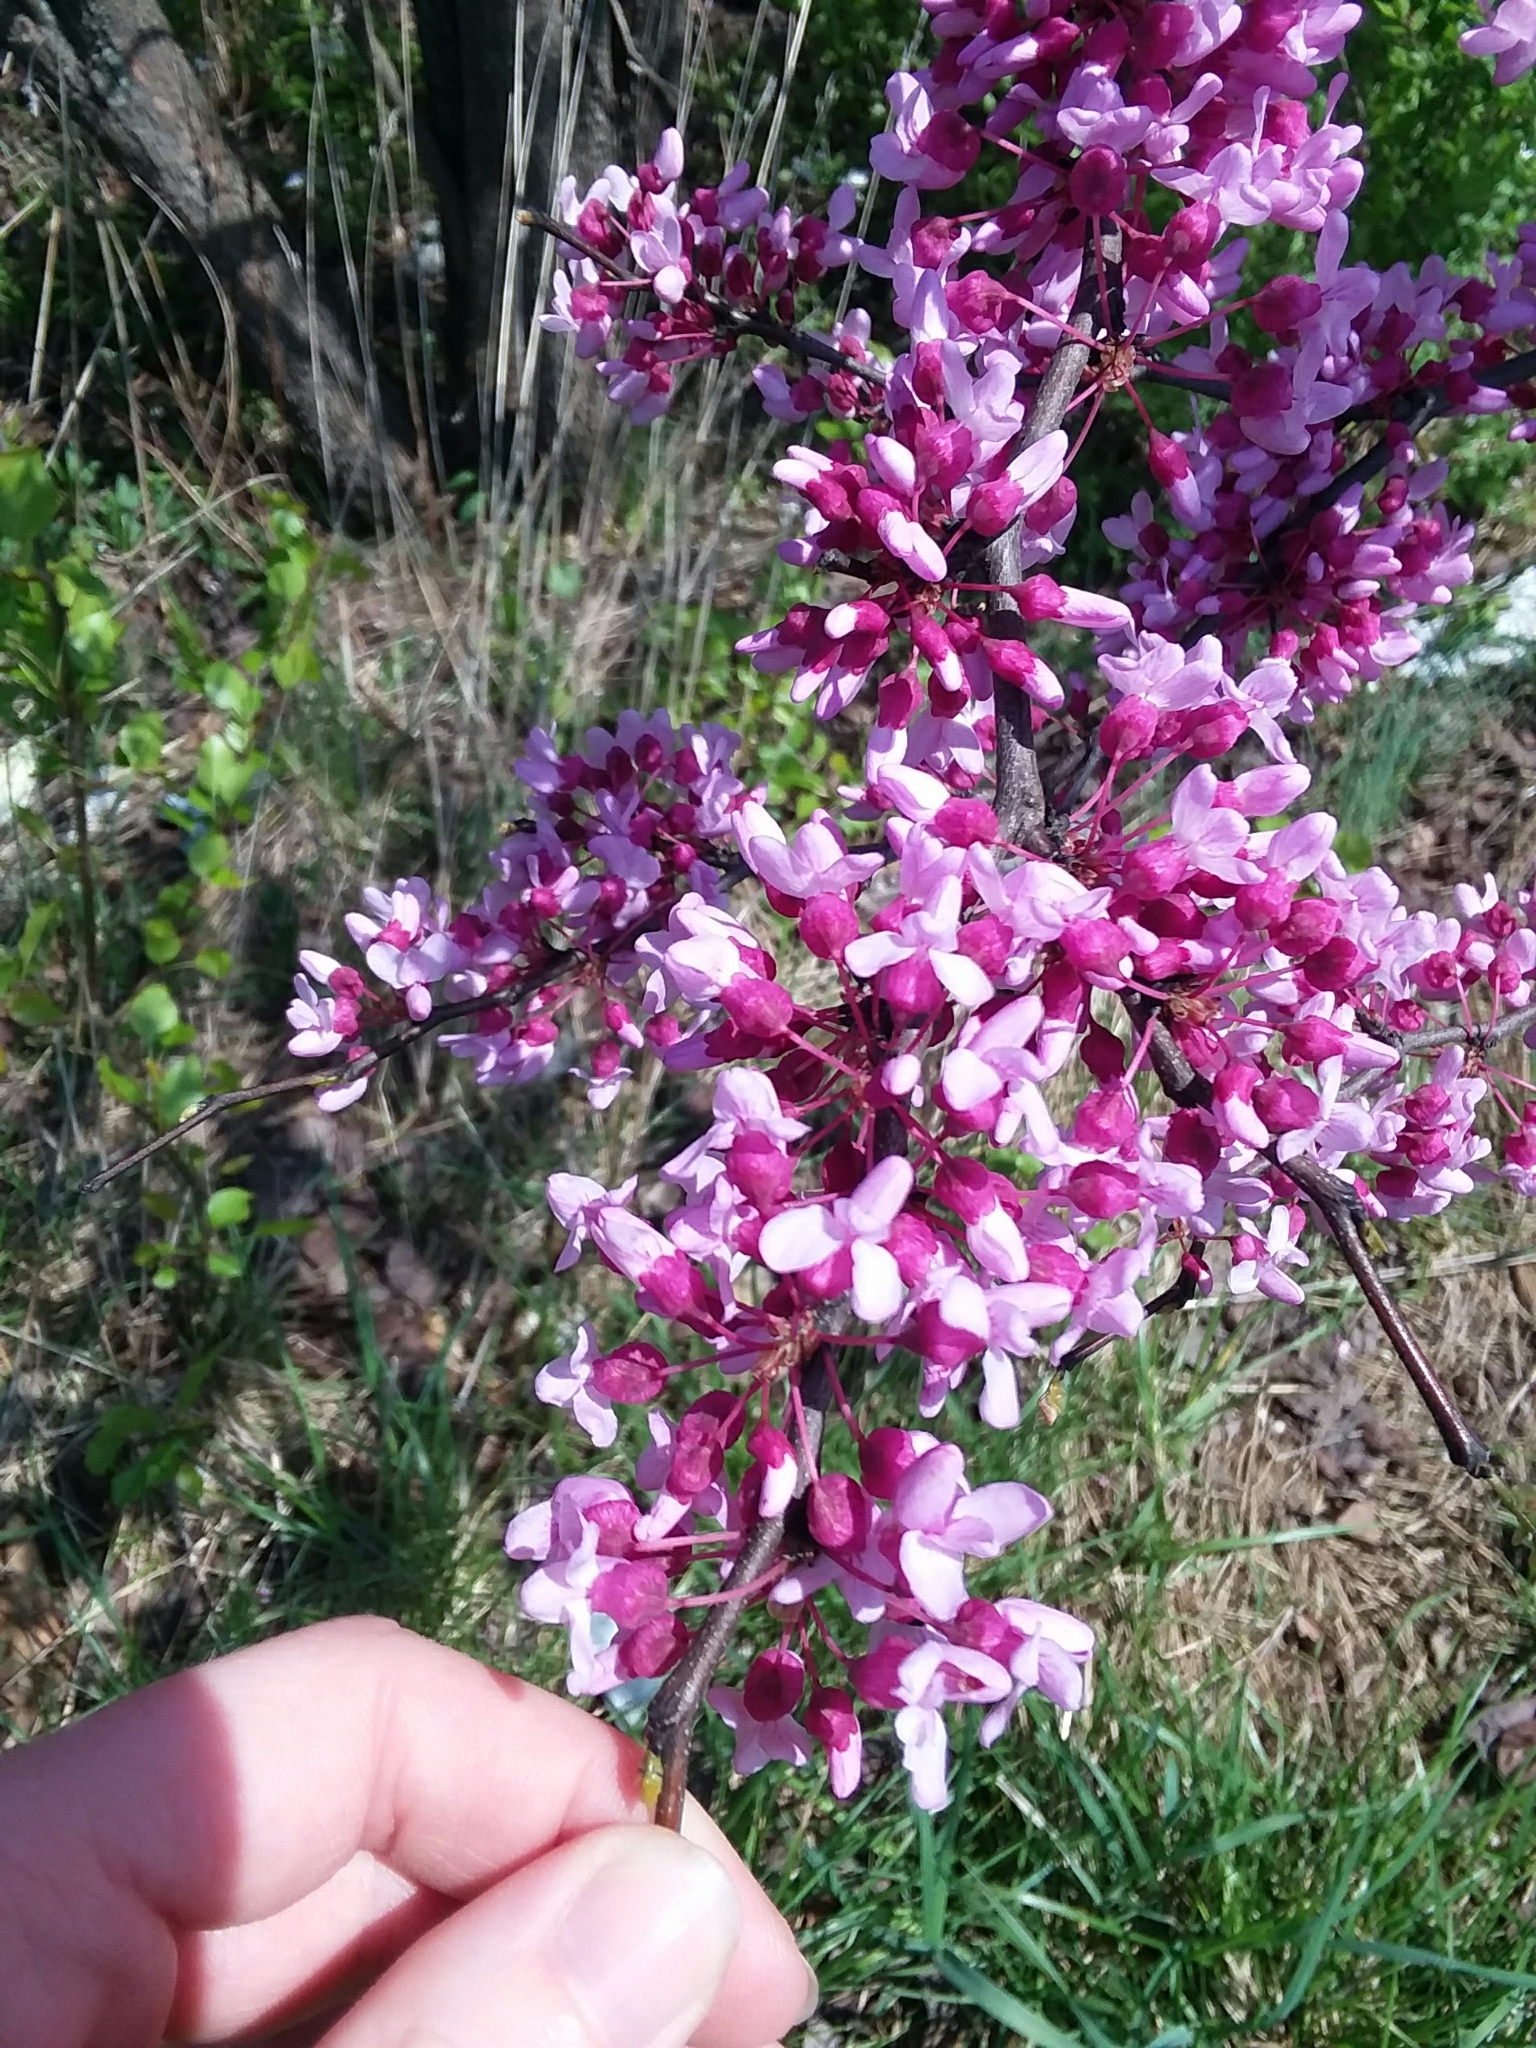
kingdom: Plantae
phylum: Tracheophyta
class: Magnoliopsida
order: Fabales
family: Fabaceae
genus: Cercis
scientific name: Cercis canadensis
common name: Eastern redbud
